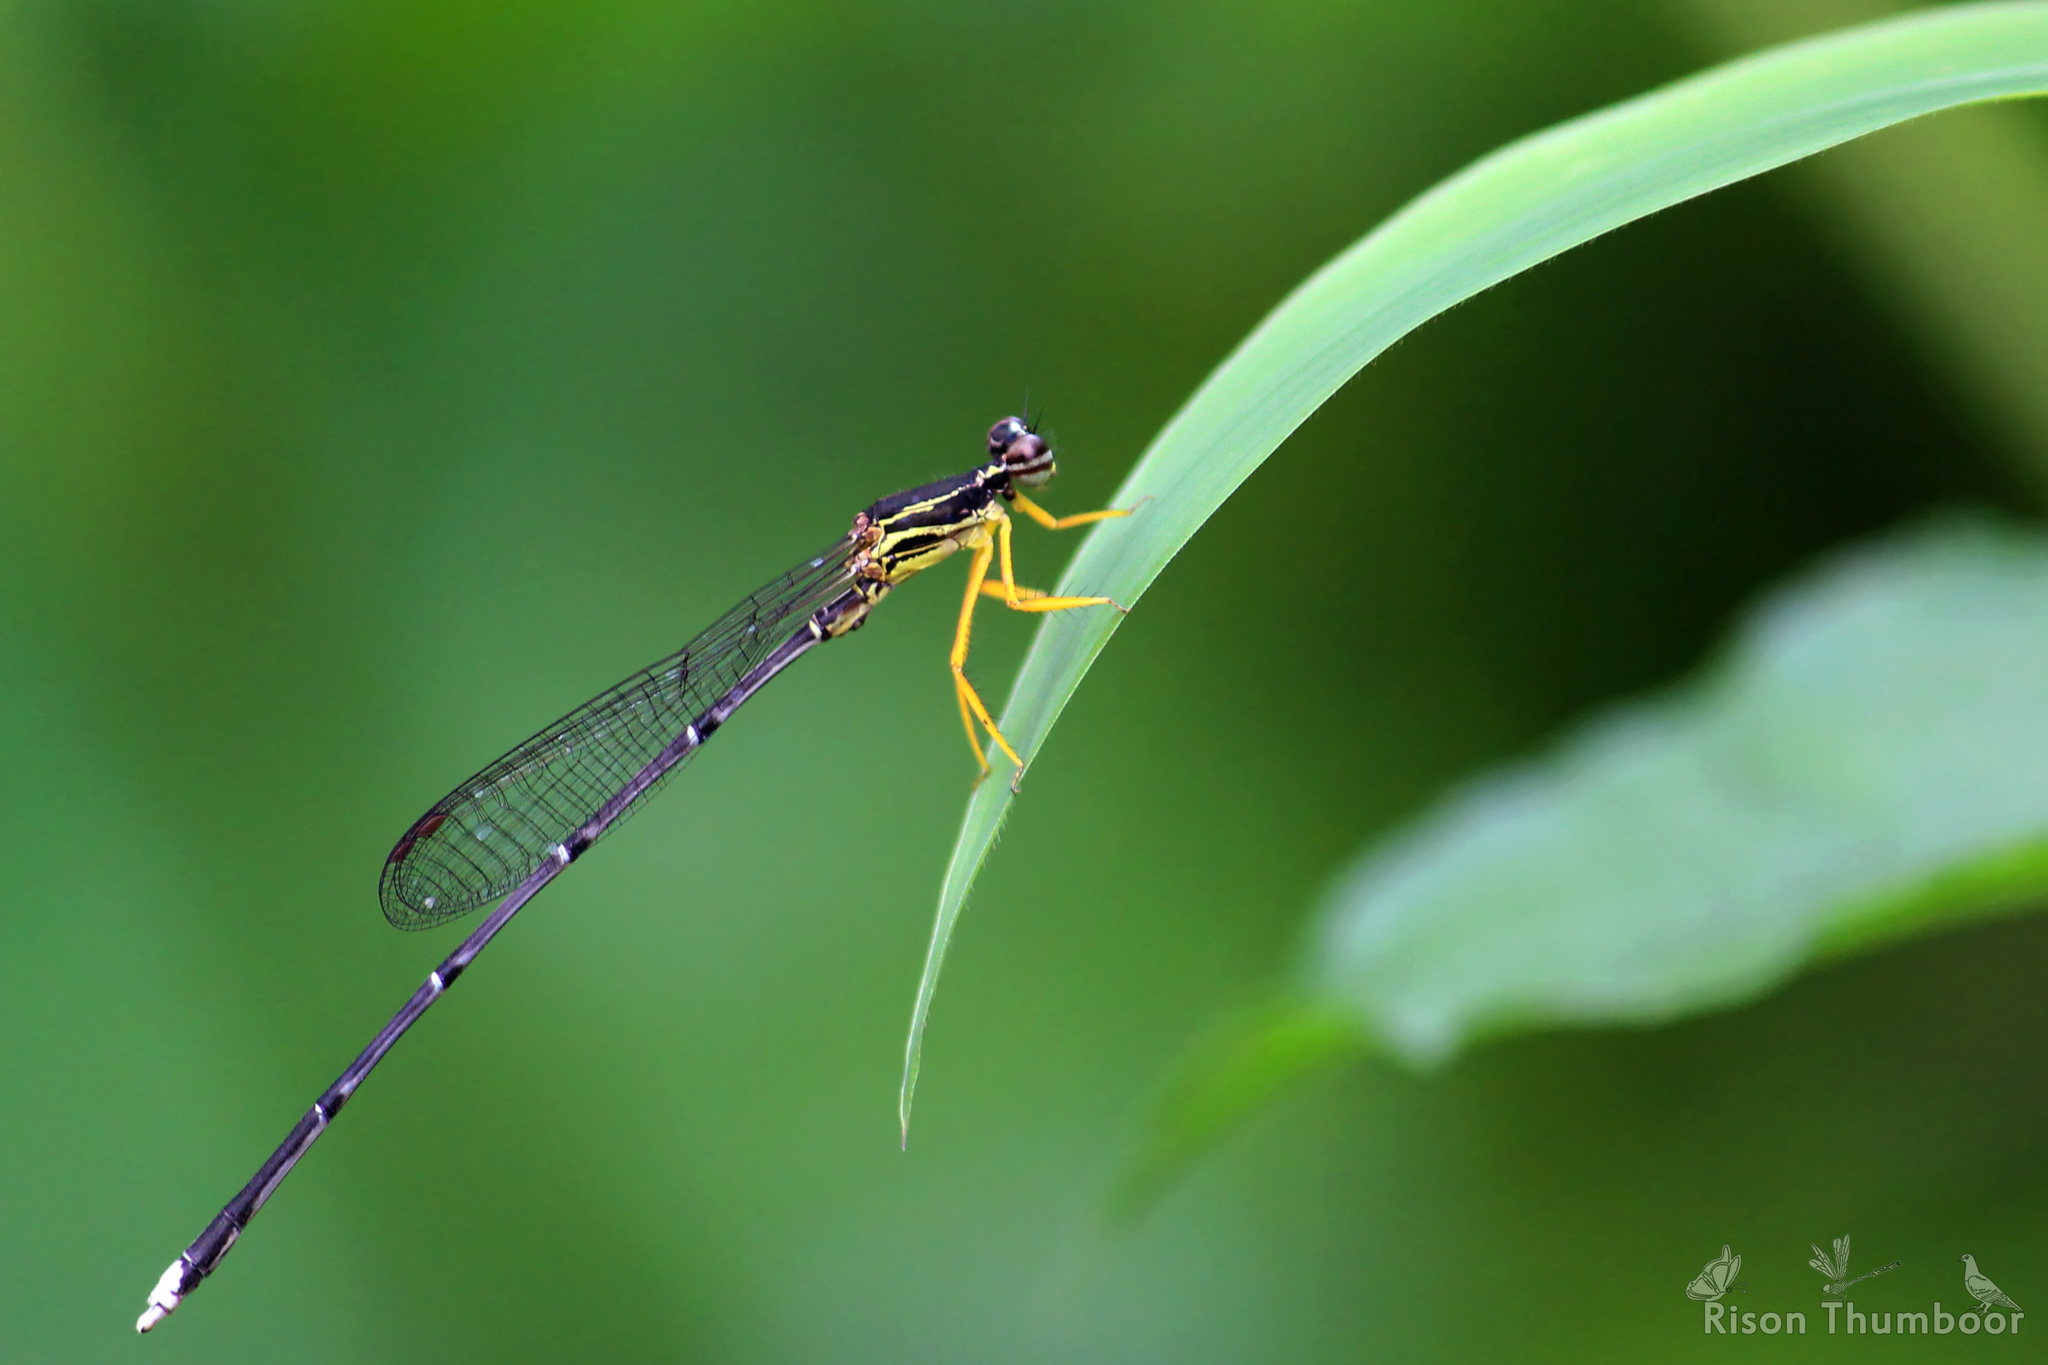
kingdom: Animalia
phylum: Arthropoda
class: Insecta
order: Odonata
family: Platycnemididae
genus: Copera
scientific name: Copera marginipes
